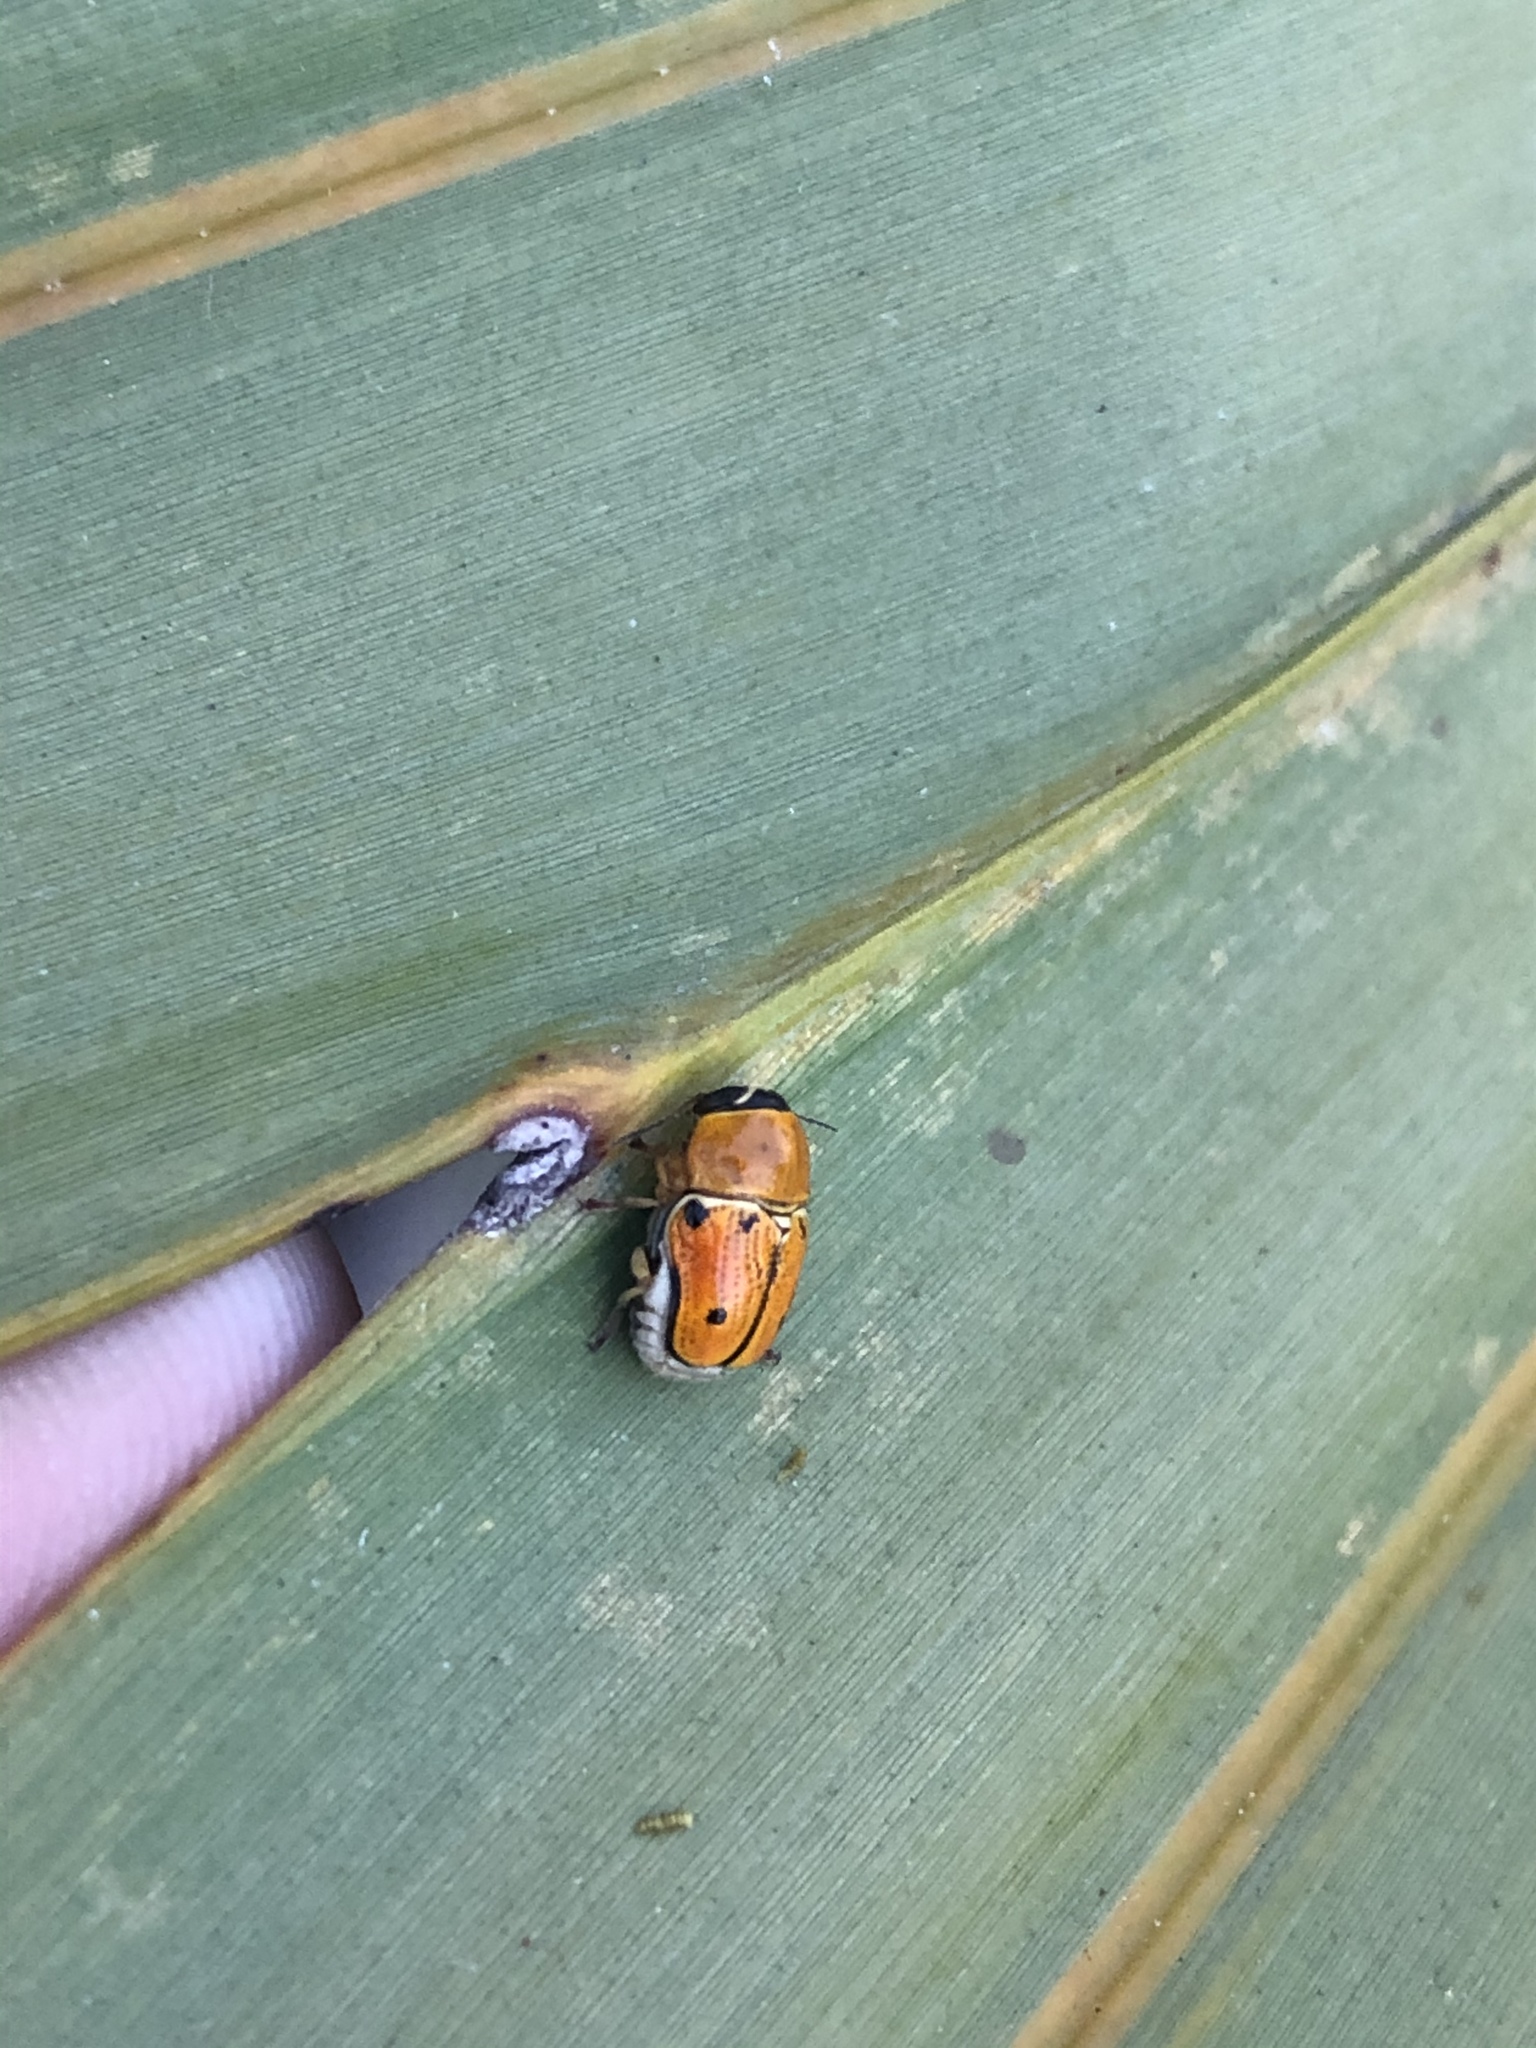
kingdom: Animalia
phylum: Arthropoda
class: Insecta
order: Coleoptera
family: Chrysomelidae
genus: Griburius
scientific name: Griburius larvatus
